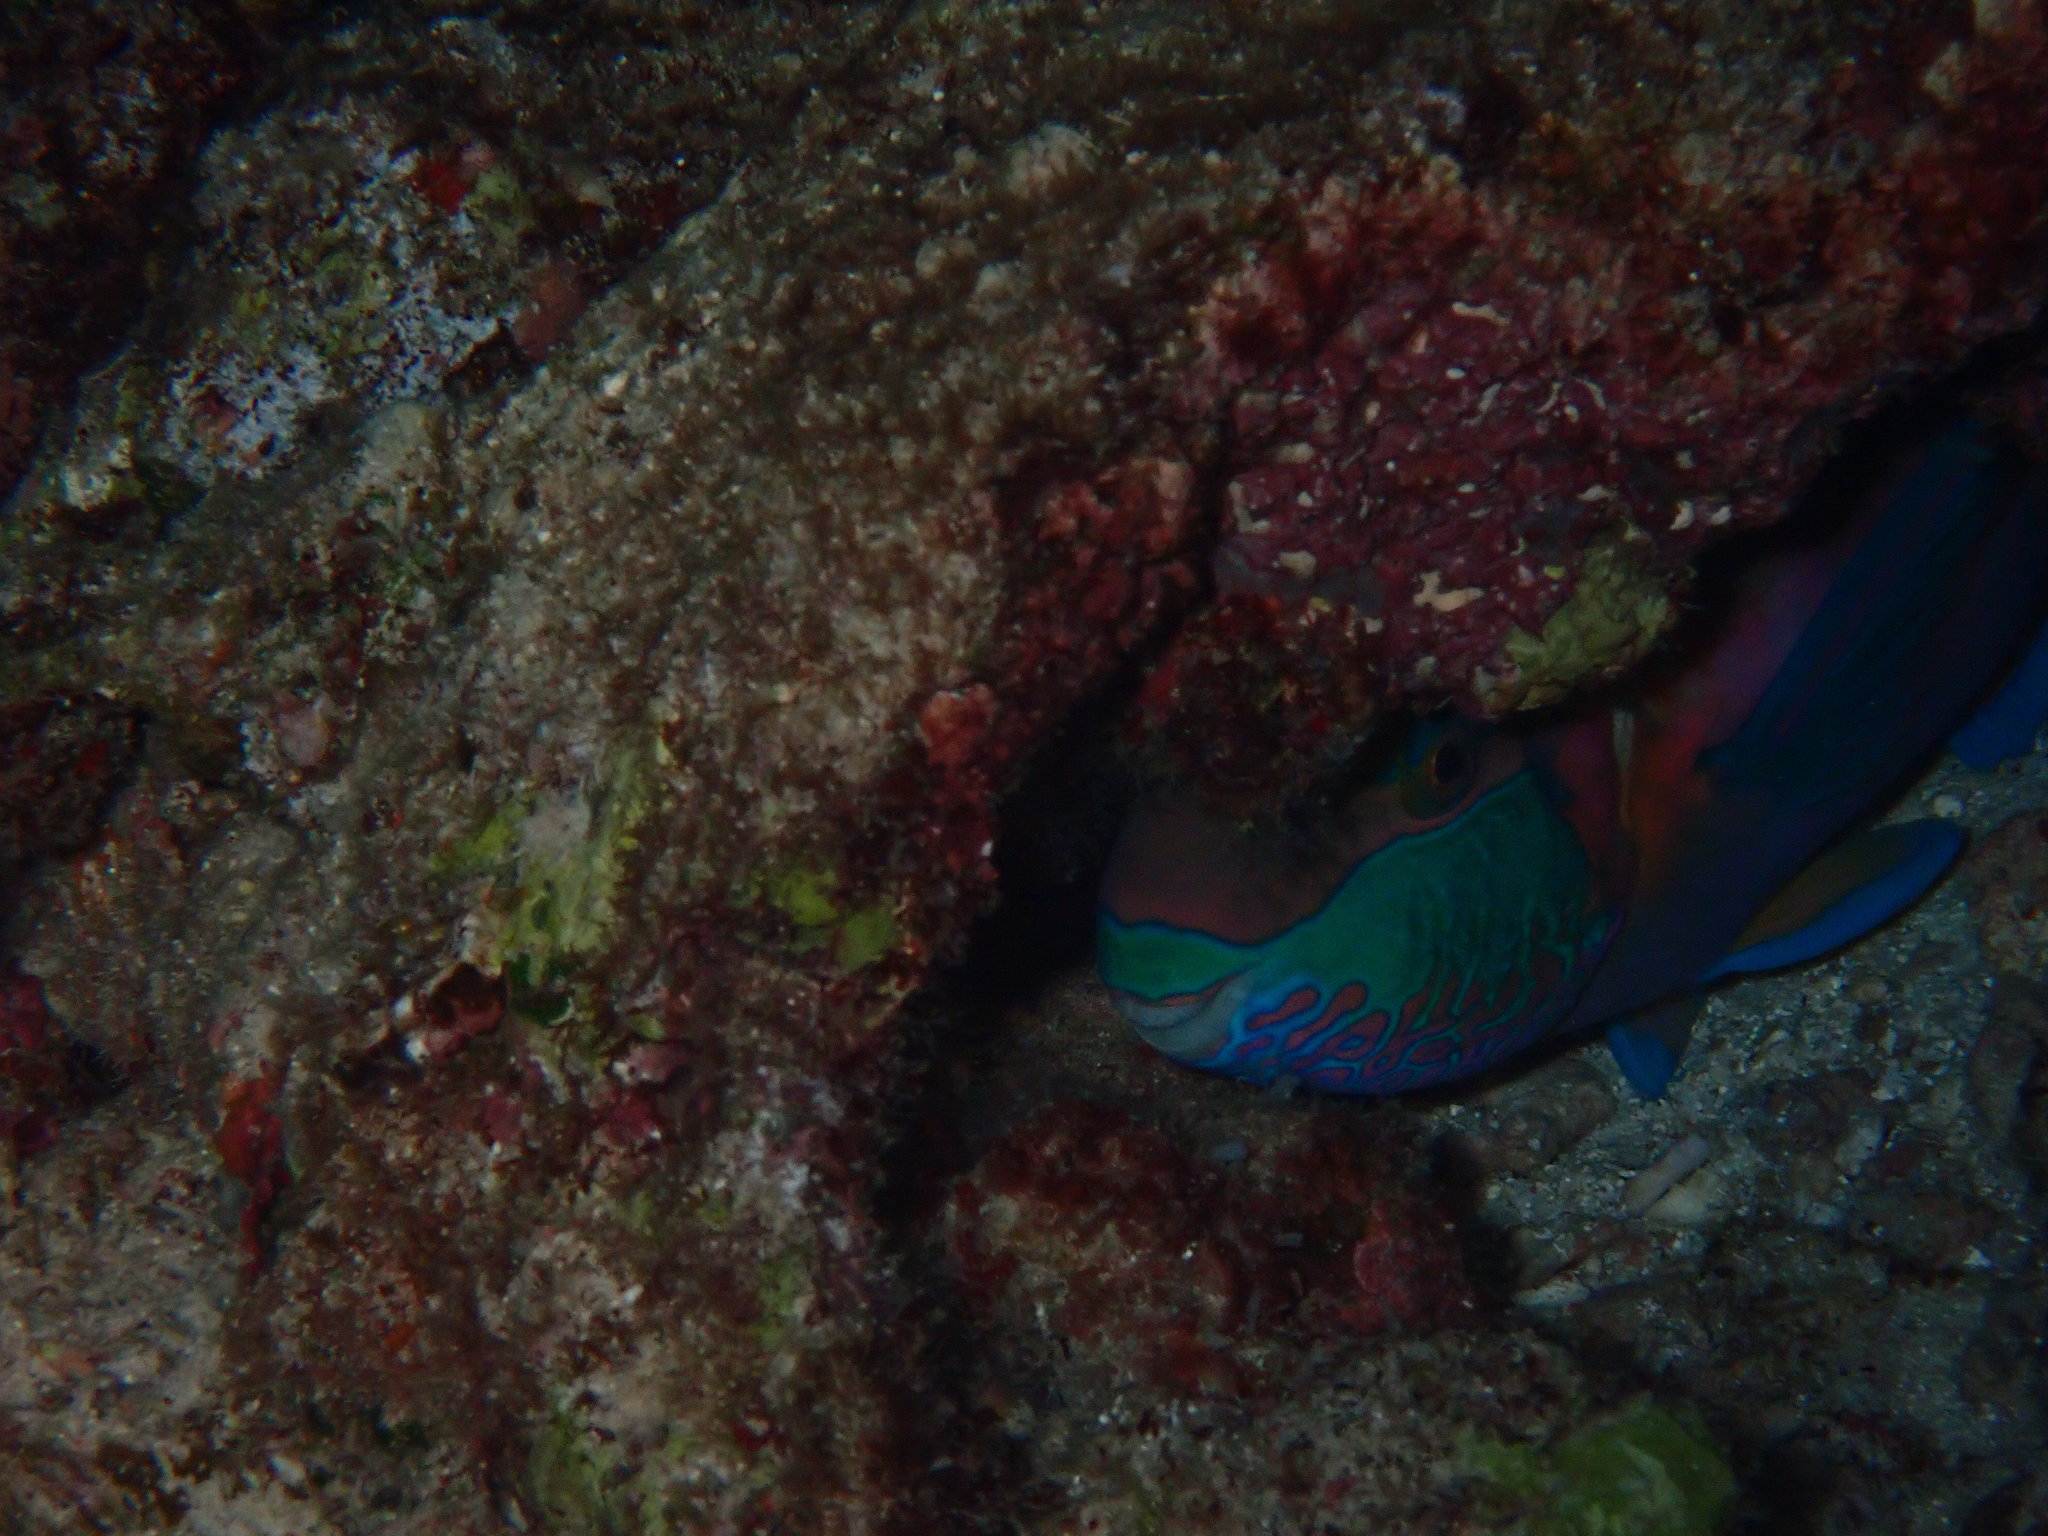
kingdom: Animalia
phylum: Chordata
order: Perciformes
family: Scaridae
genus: Scarus
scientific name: Scarus prasiognathos
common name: Singapore parrotfish
